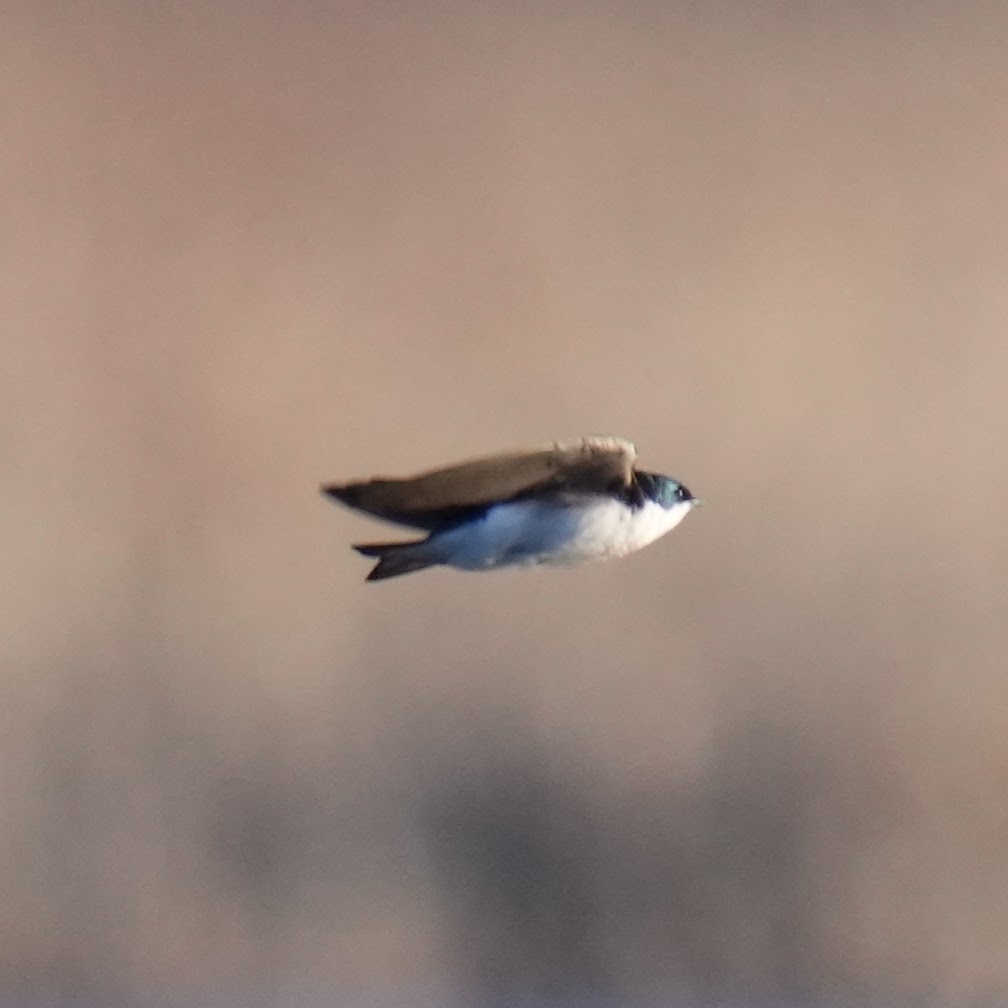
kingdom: Animalia
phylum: Chordata
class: Aves
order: Passeriformes
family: Hirundinidae
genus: Tachycineta
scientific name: Tachycineta bicolor
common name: Tree swallow
